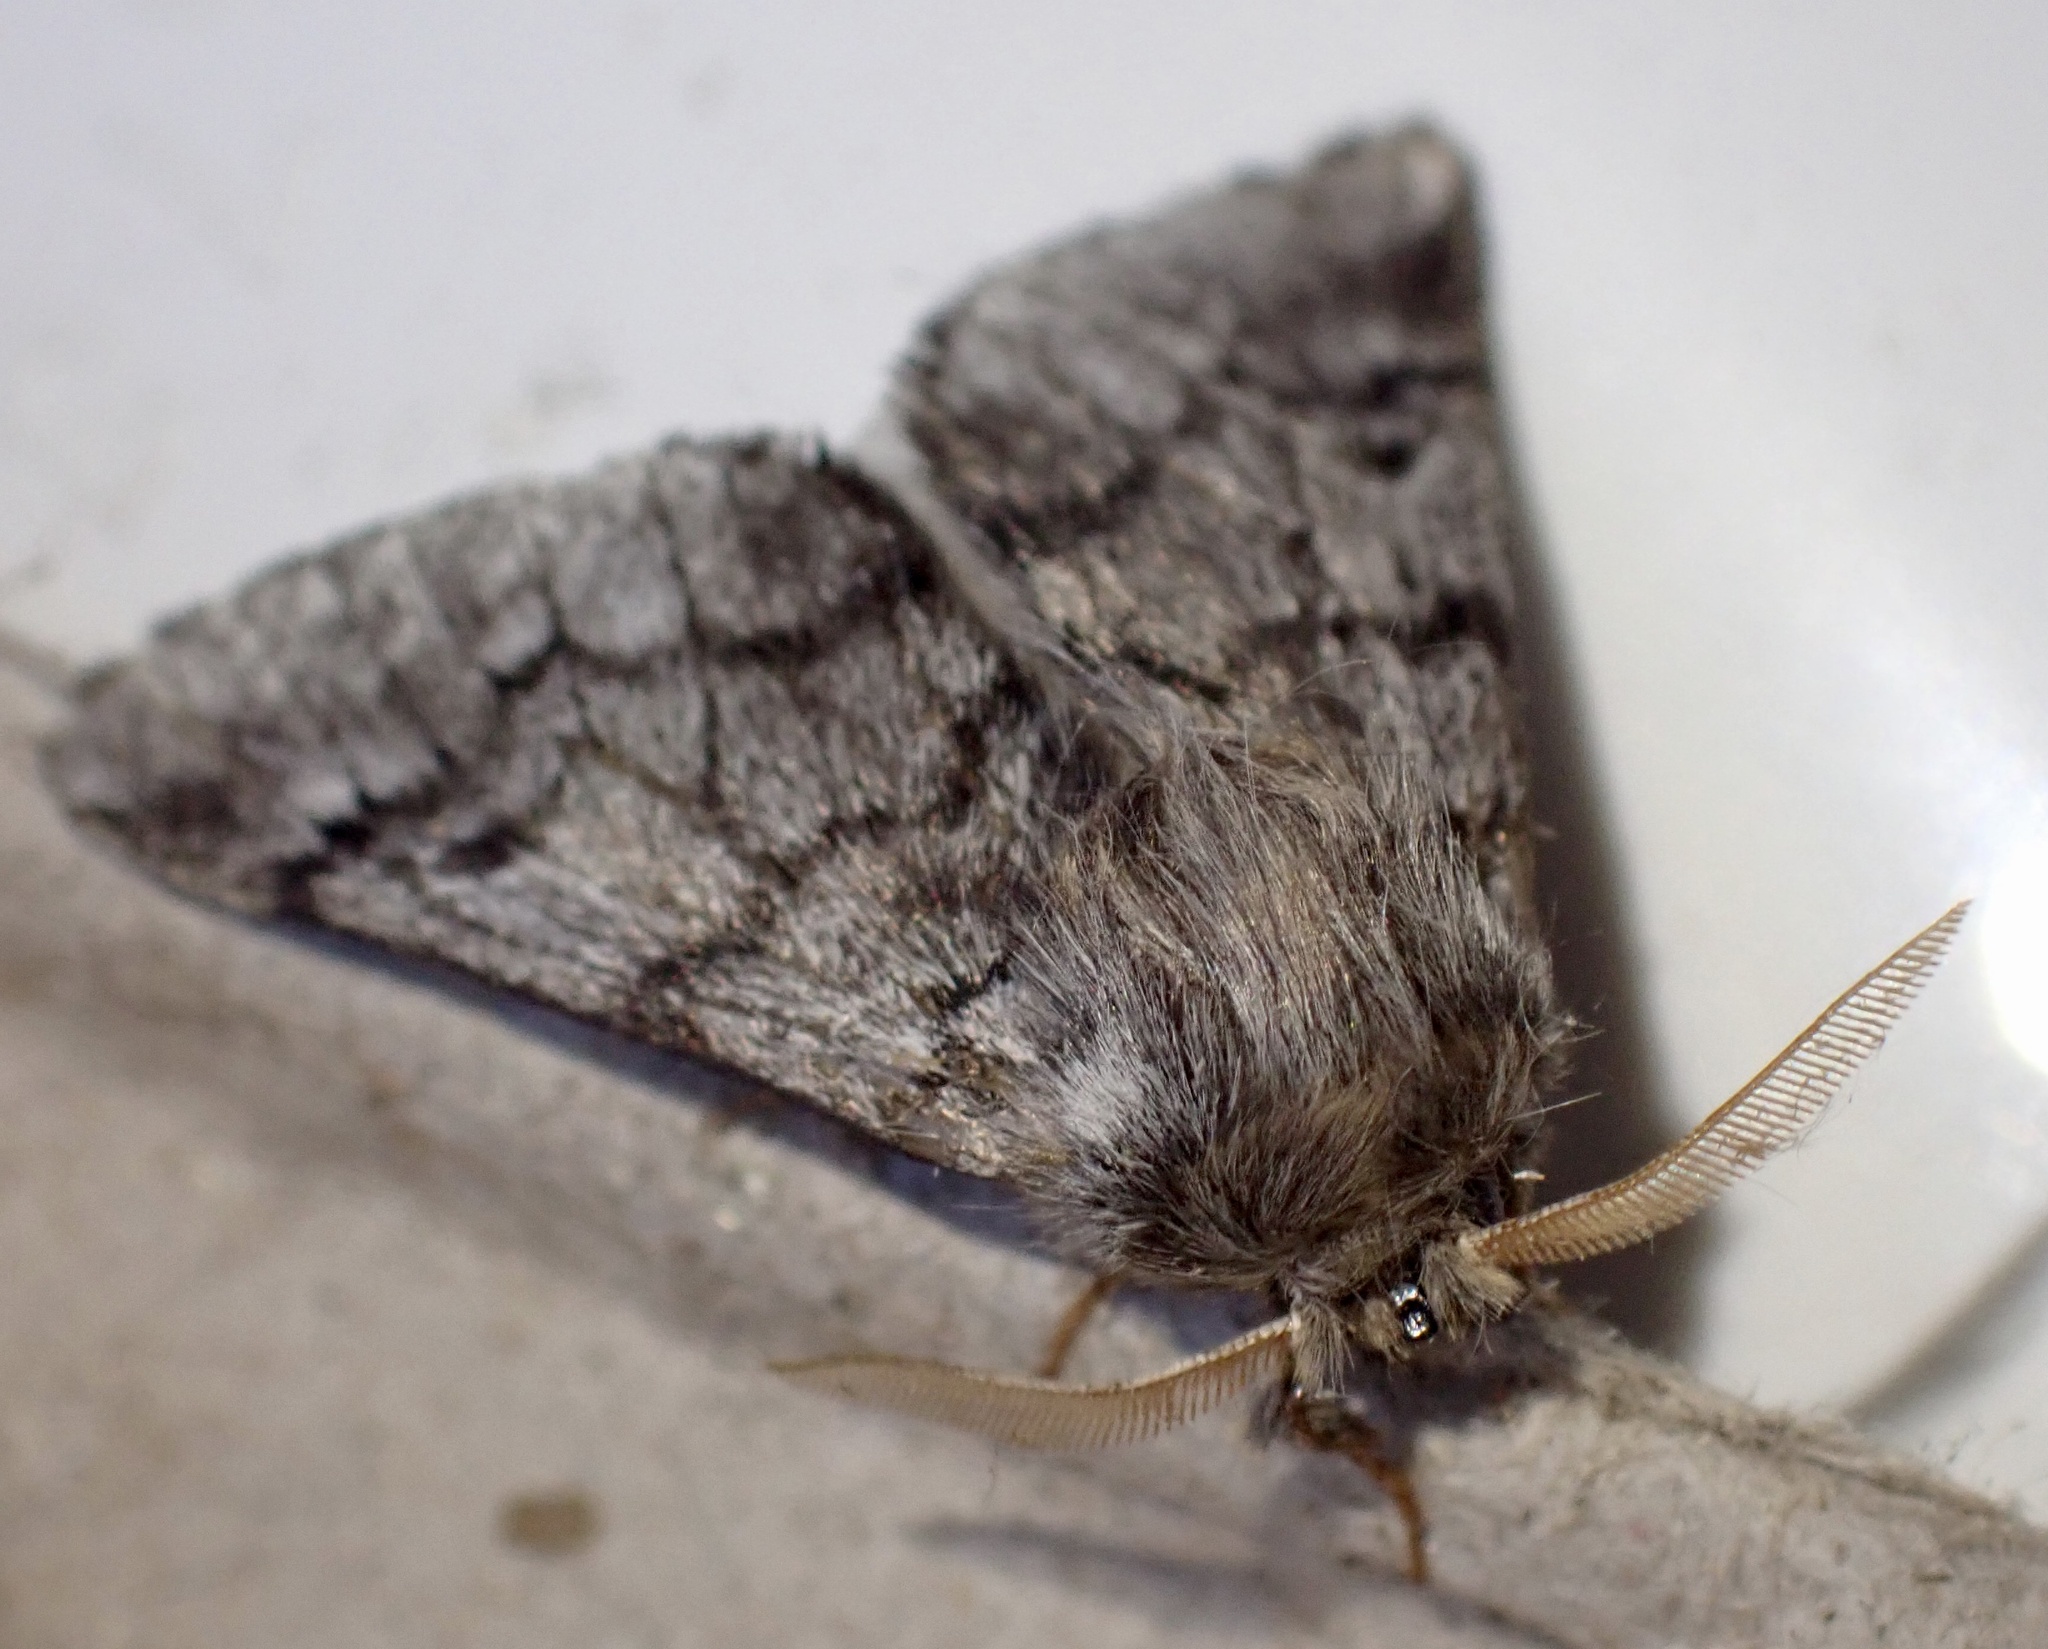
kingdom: Animalia
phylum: Arthropoda
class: Insecta
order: Lepidoptera
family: Notodontidae
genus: Thaumetopoea
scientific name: Thaumetopoea pityocampa
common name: Pine processionary
